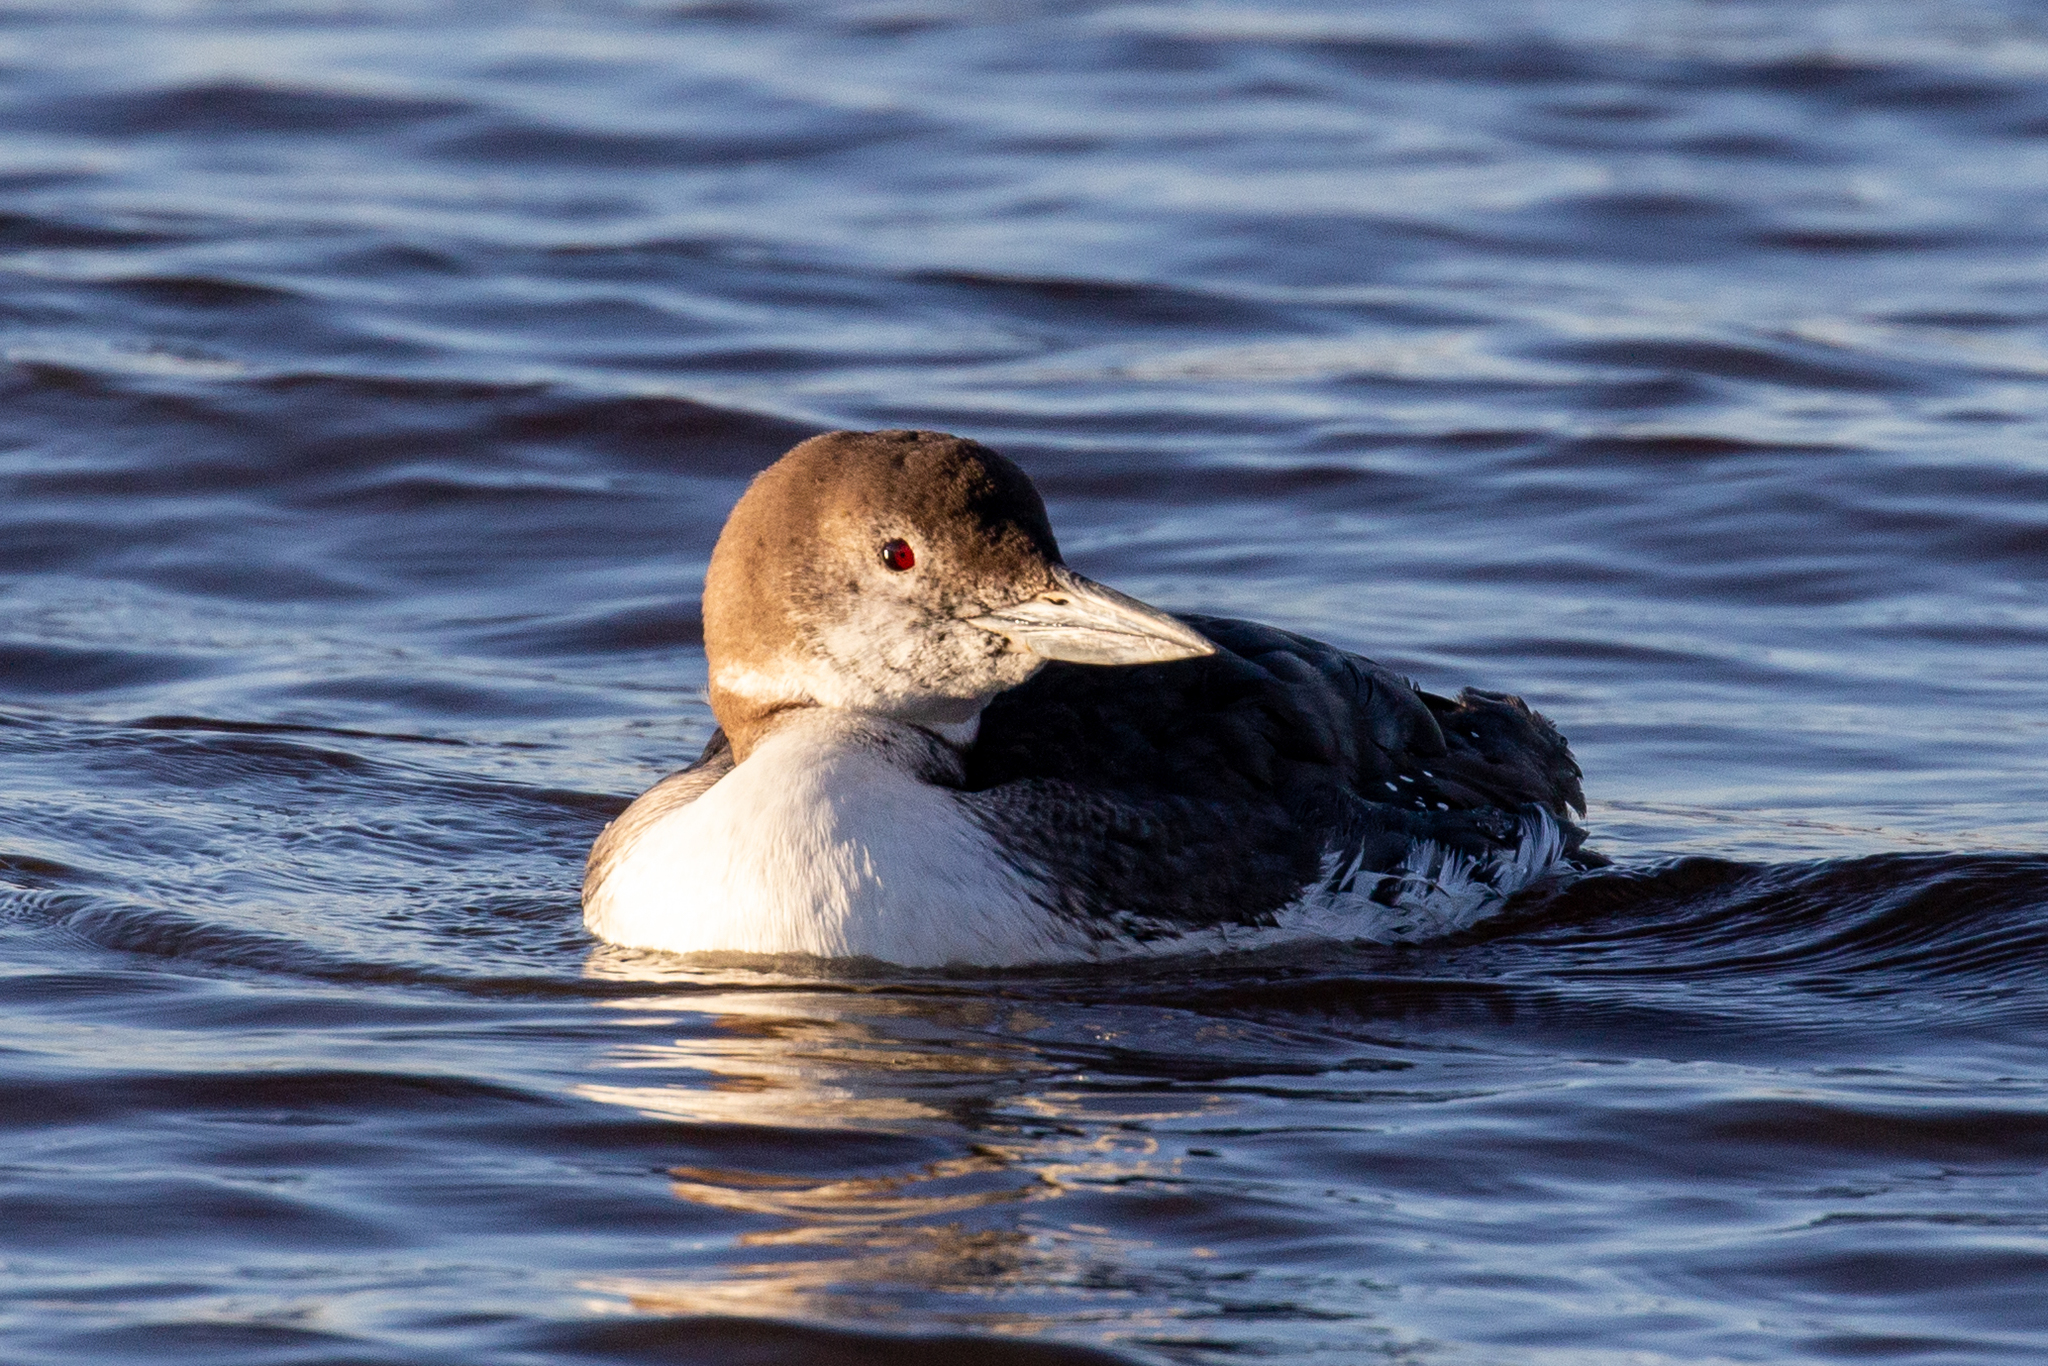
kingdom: Animalia
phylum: Chordata
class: Aves
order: Gaviiformes
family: Gaviidae
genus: Gavia
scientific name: Gavia immer
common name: Common loon
